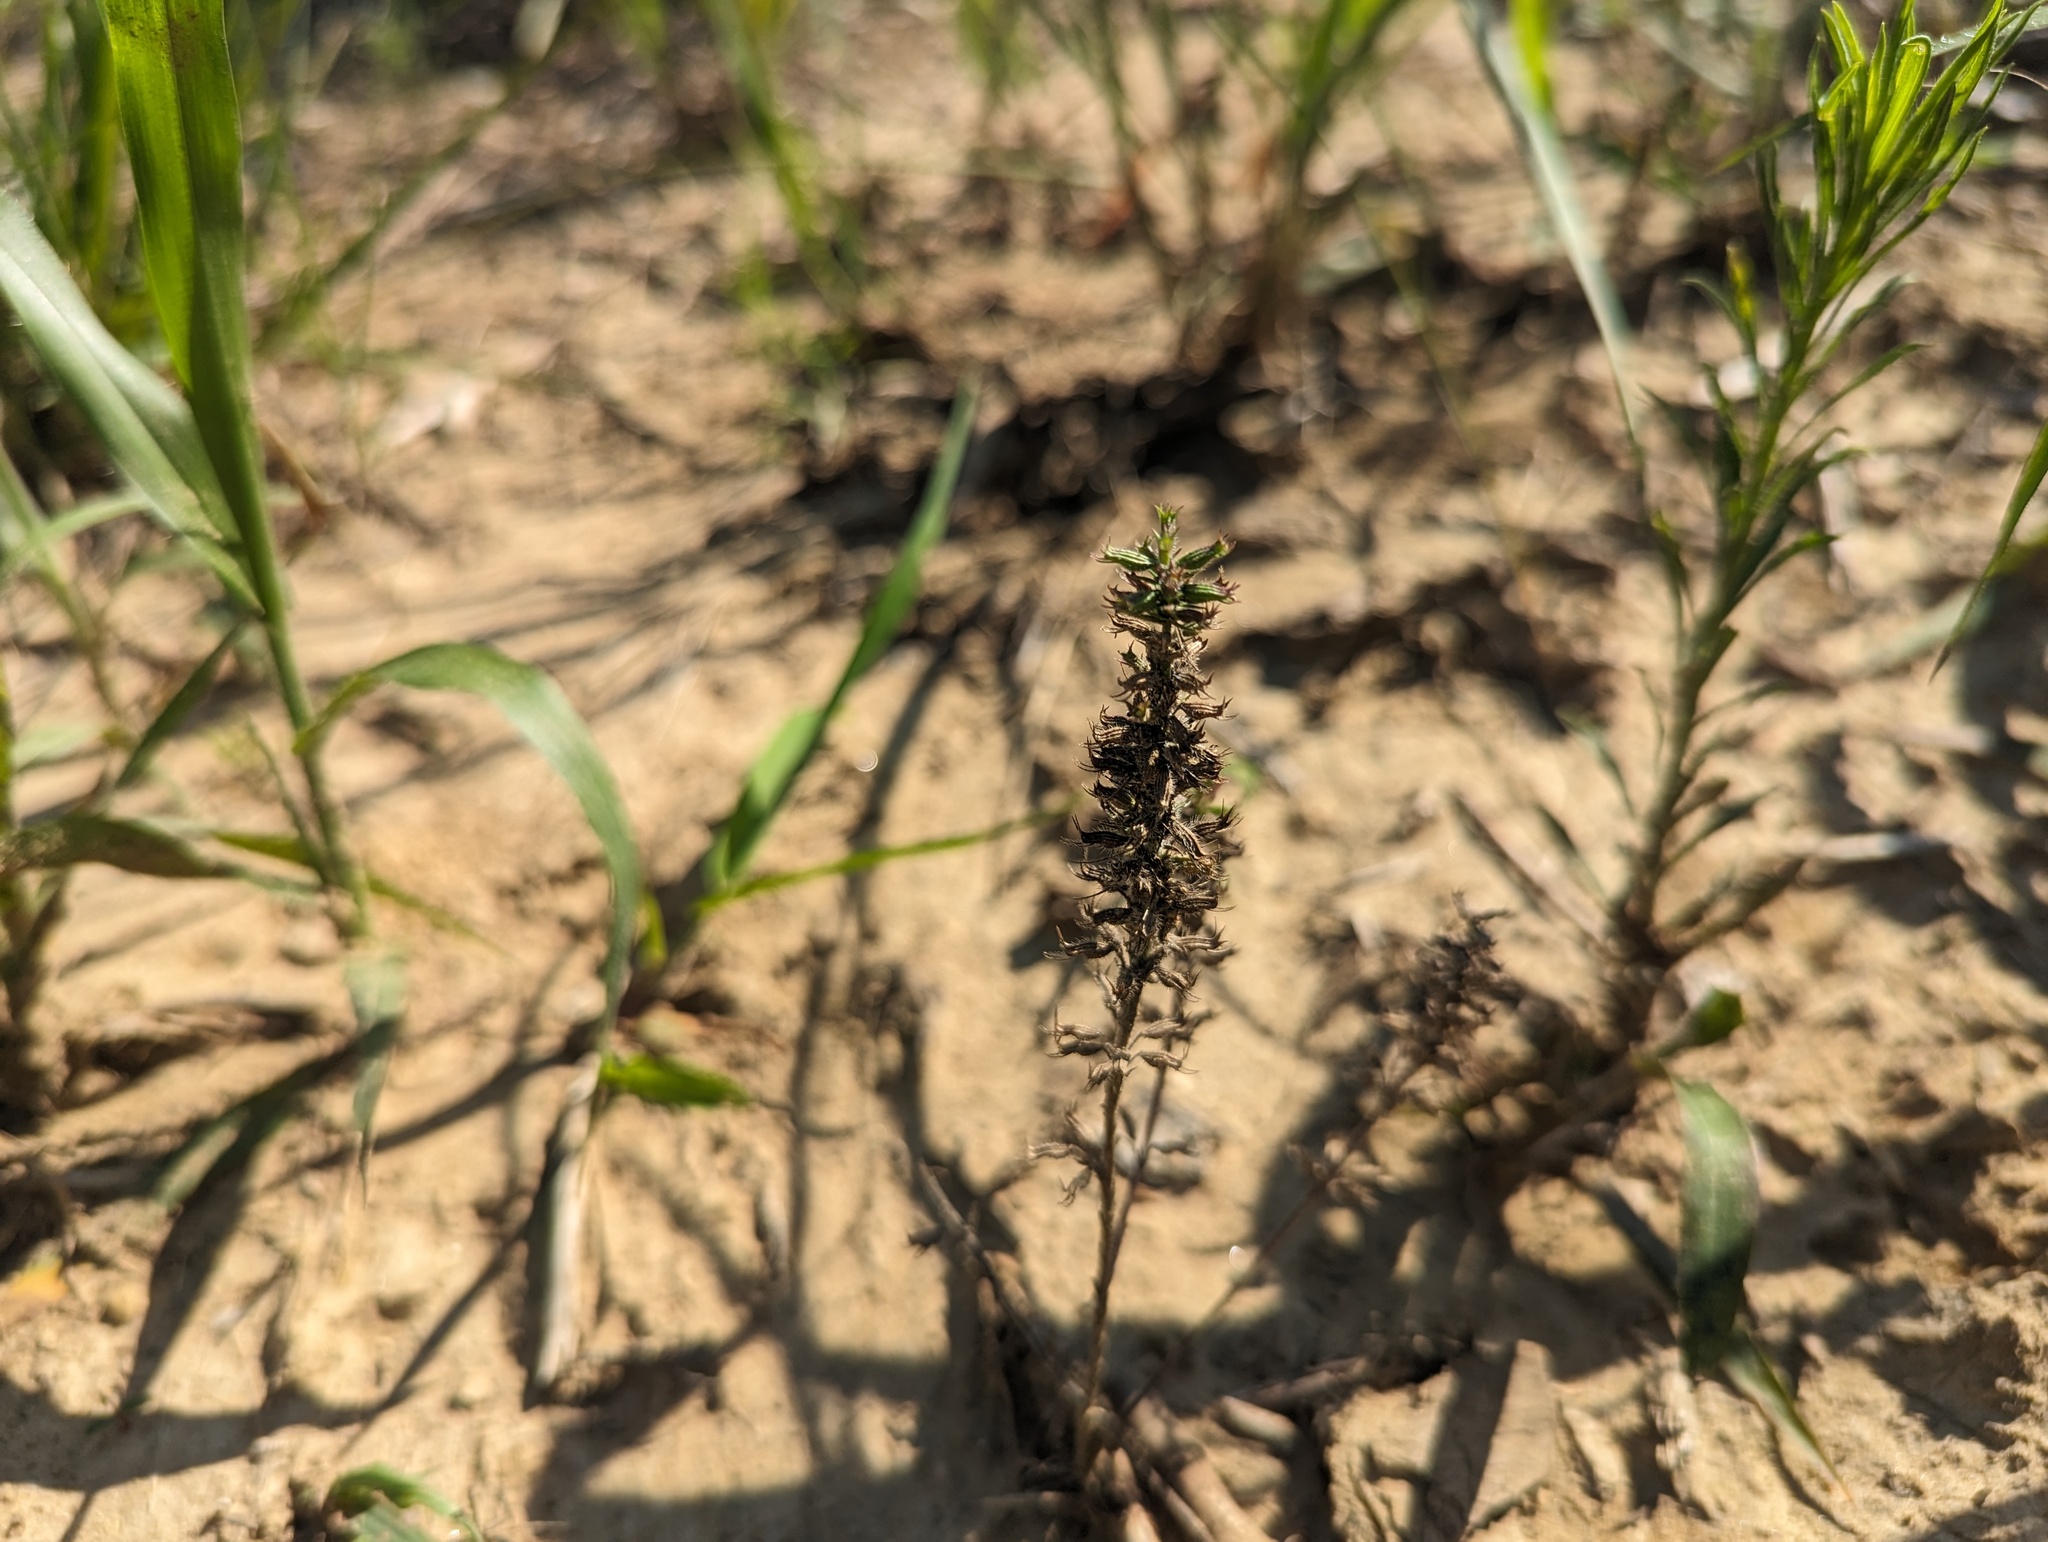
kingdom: Plantae
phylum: Tracheophyta
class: Magnoliopsida
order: Lamiales
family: Lamiaceae
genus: Hedeoma
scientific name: Hedeoma hispida
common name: Mock pennyroyal
